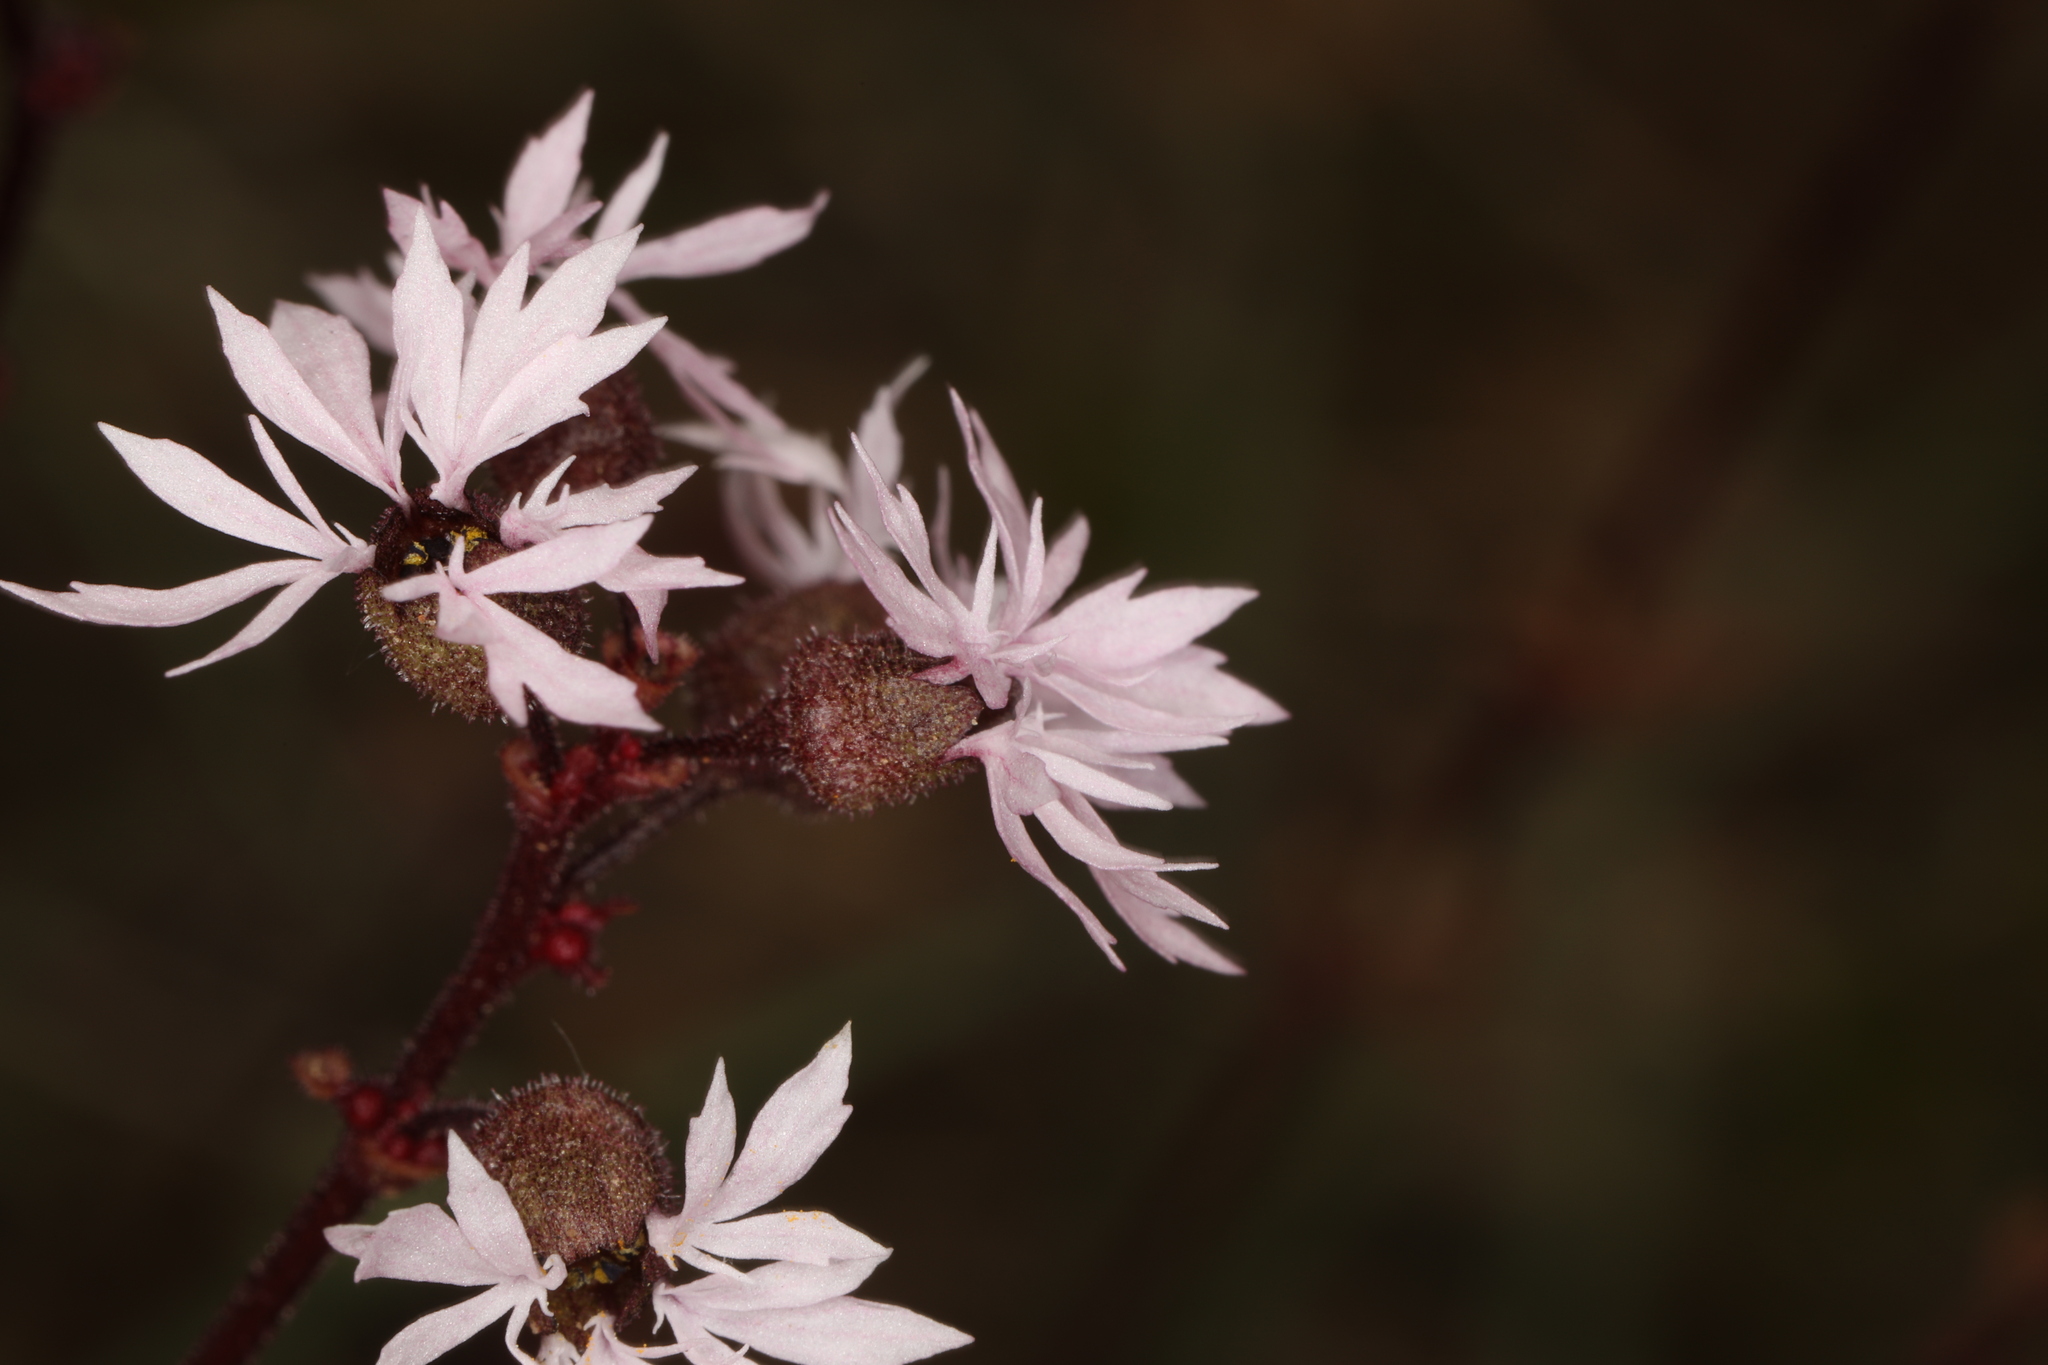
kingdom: Plantae
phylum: Tracheophyta
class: Magnoliopsida
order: Saxifragales
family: Saxifragaceae
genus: Lithophragma
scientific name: Lithophragma glabrum
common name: Bulbous prairie-star
